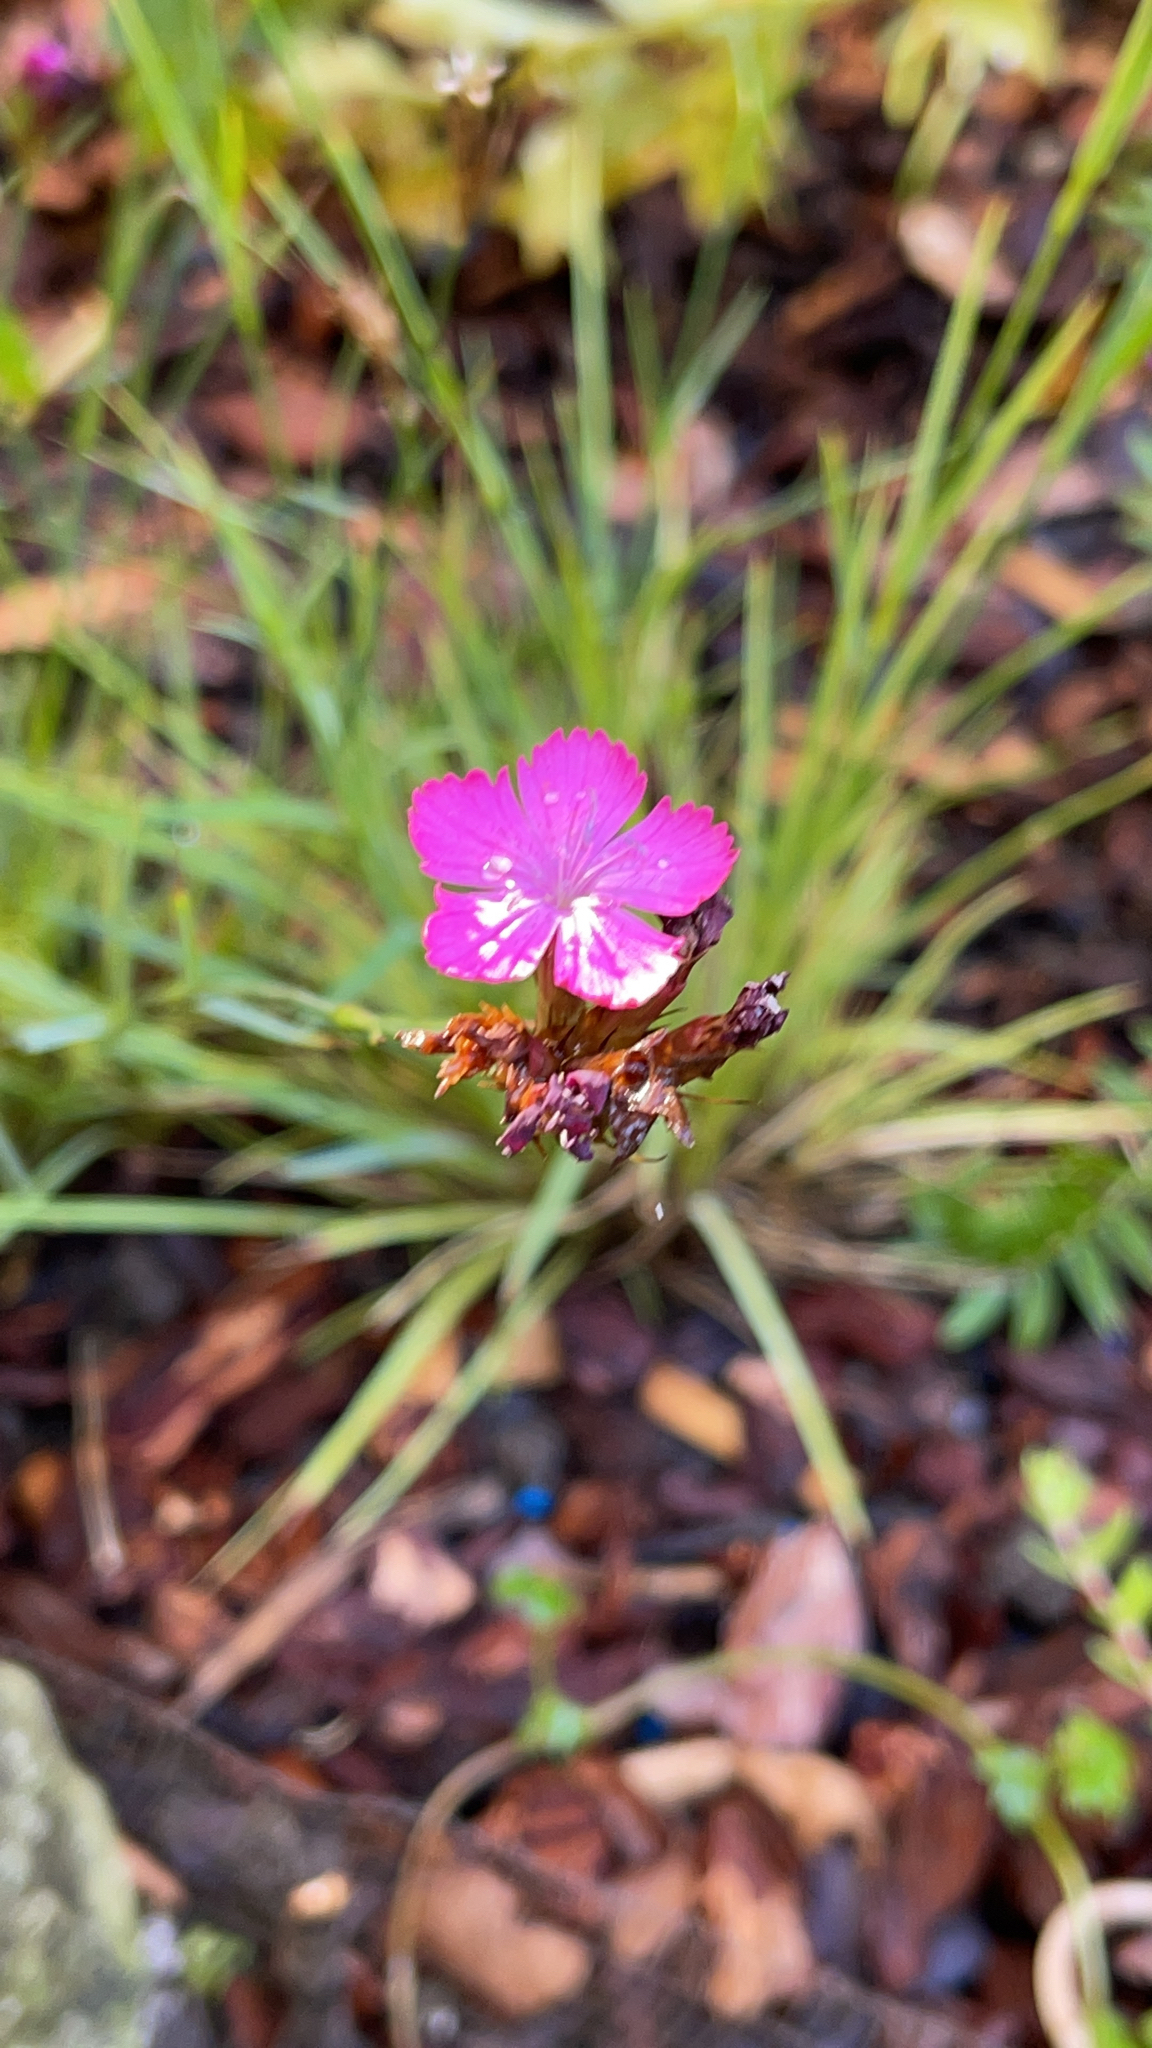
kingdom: Plantae
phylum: Tracheophyta
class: Magnoliopsida
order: Caryophyllales
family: Caryophyllaceae
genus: Dianthus
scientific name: Dianthus carthusianorum
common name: Carthusian pink
